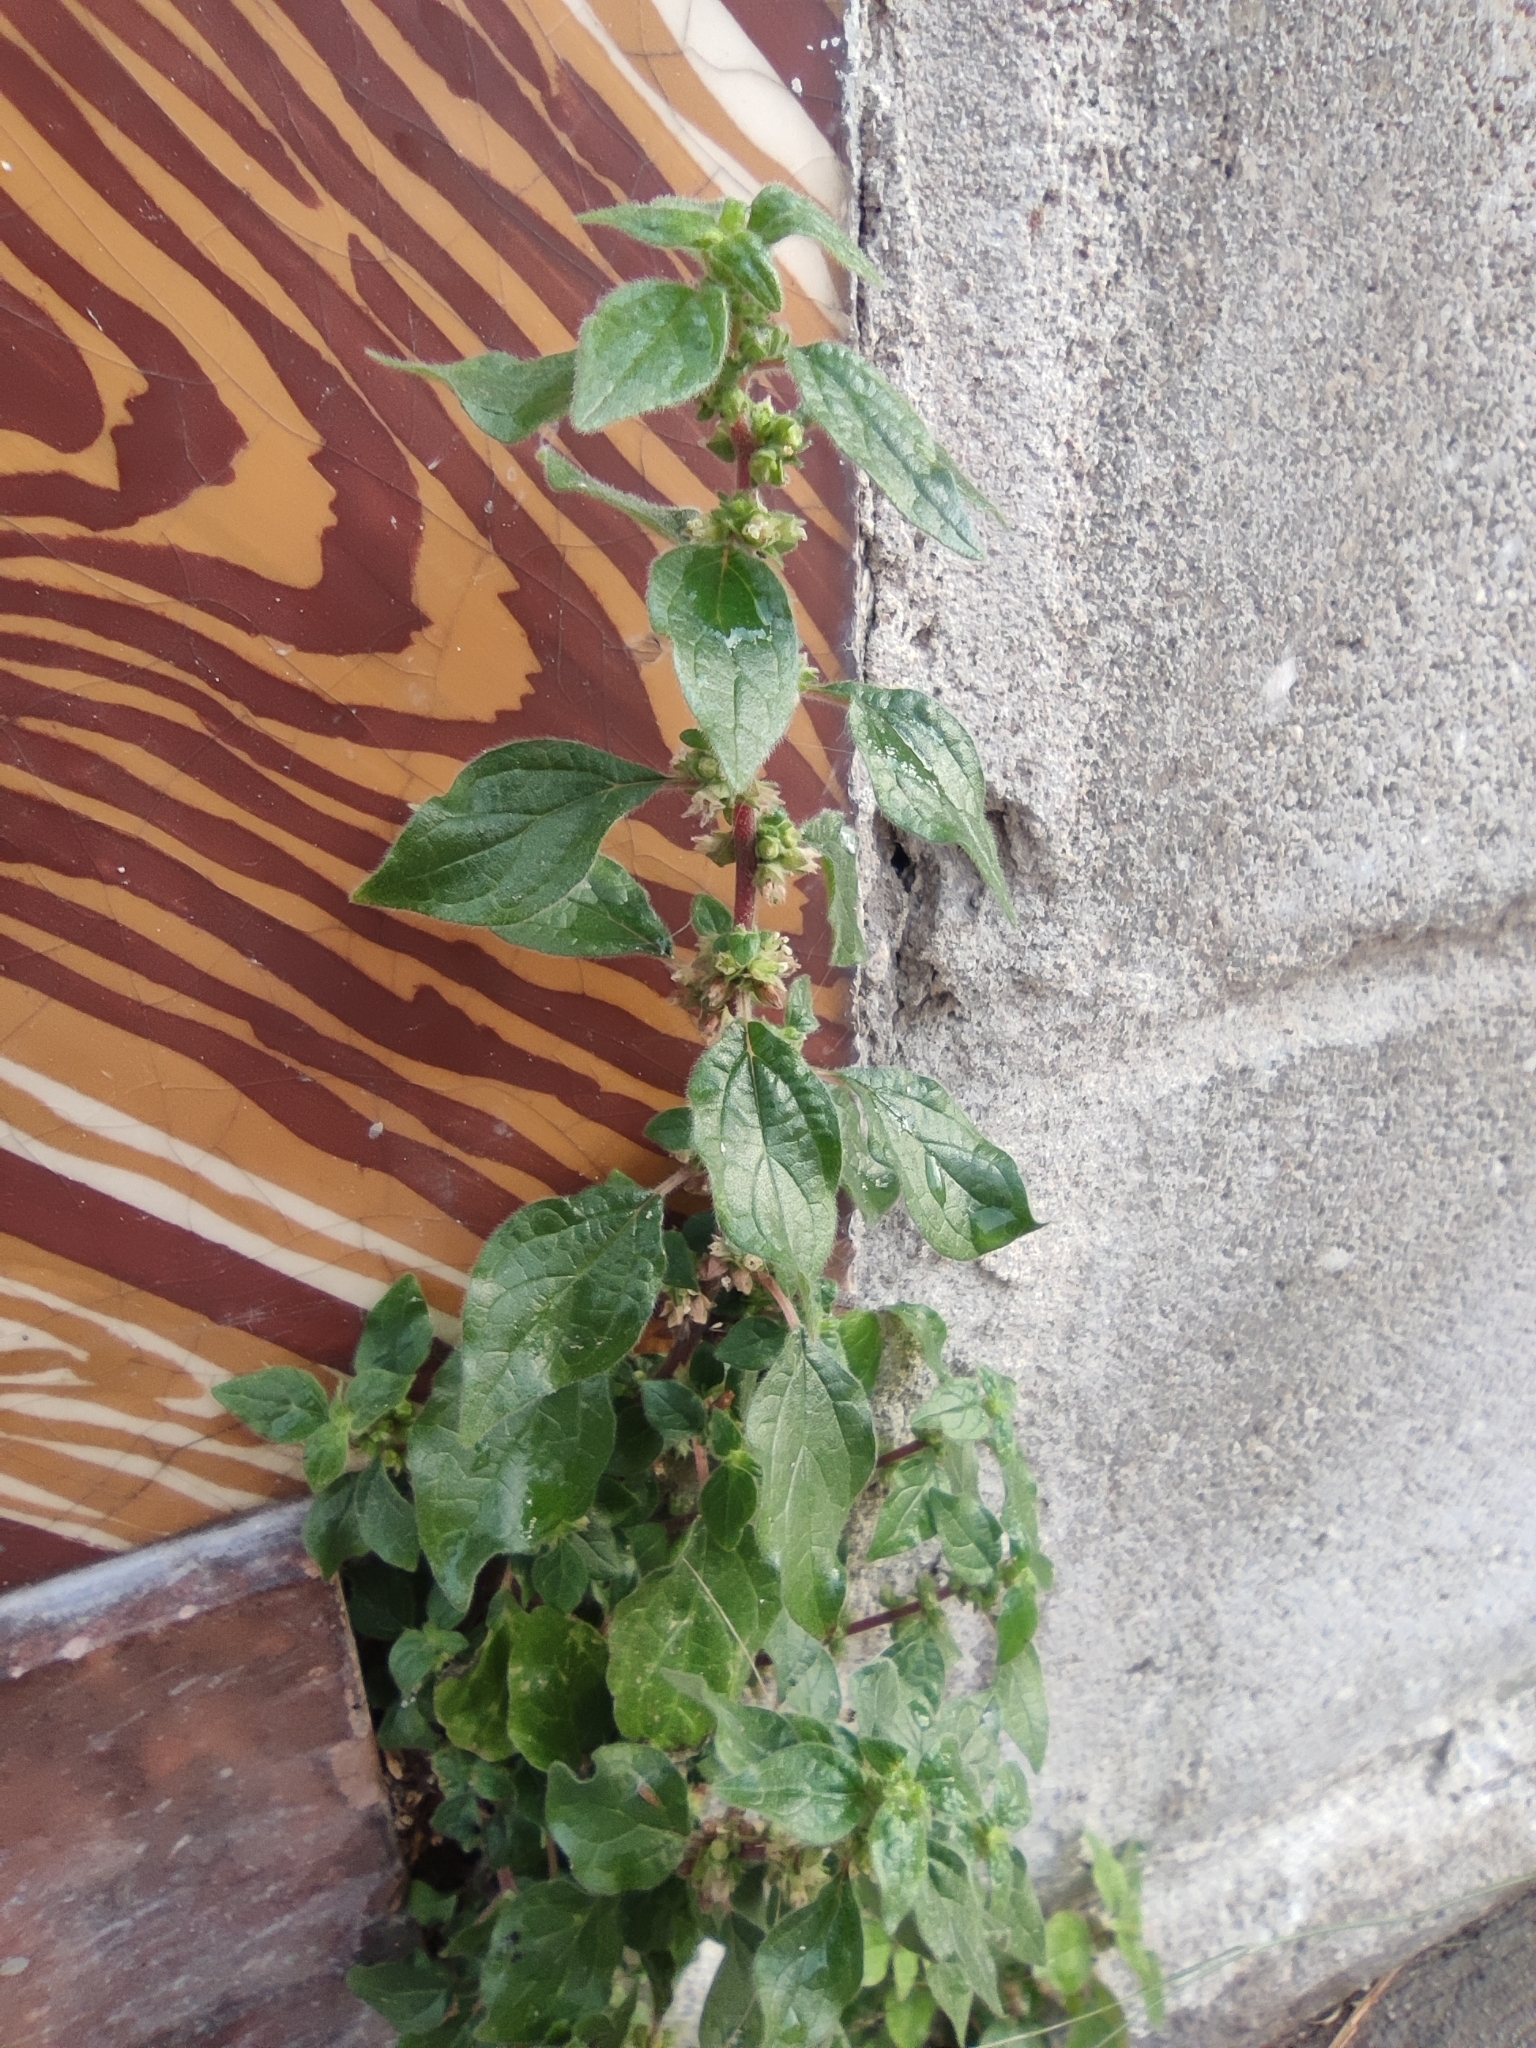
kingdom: Plantae
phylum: Tracheophyta
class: Magnoliopsida
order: Rosales
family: Urticaceae
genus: Parietaria
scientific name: Parietaria judaica
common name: Pellitory-of-the-wall
